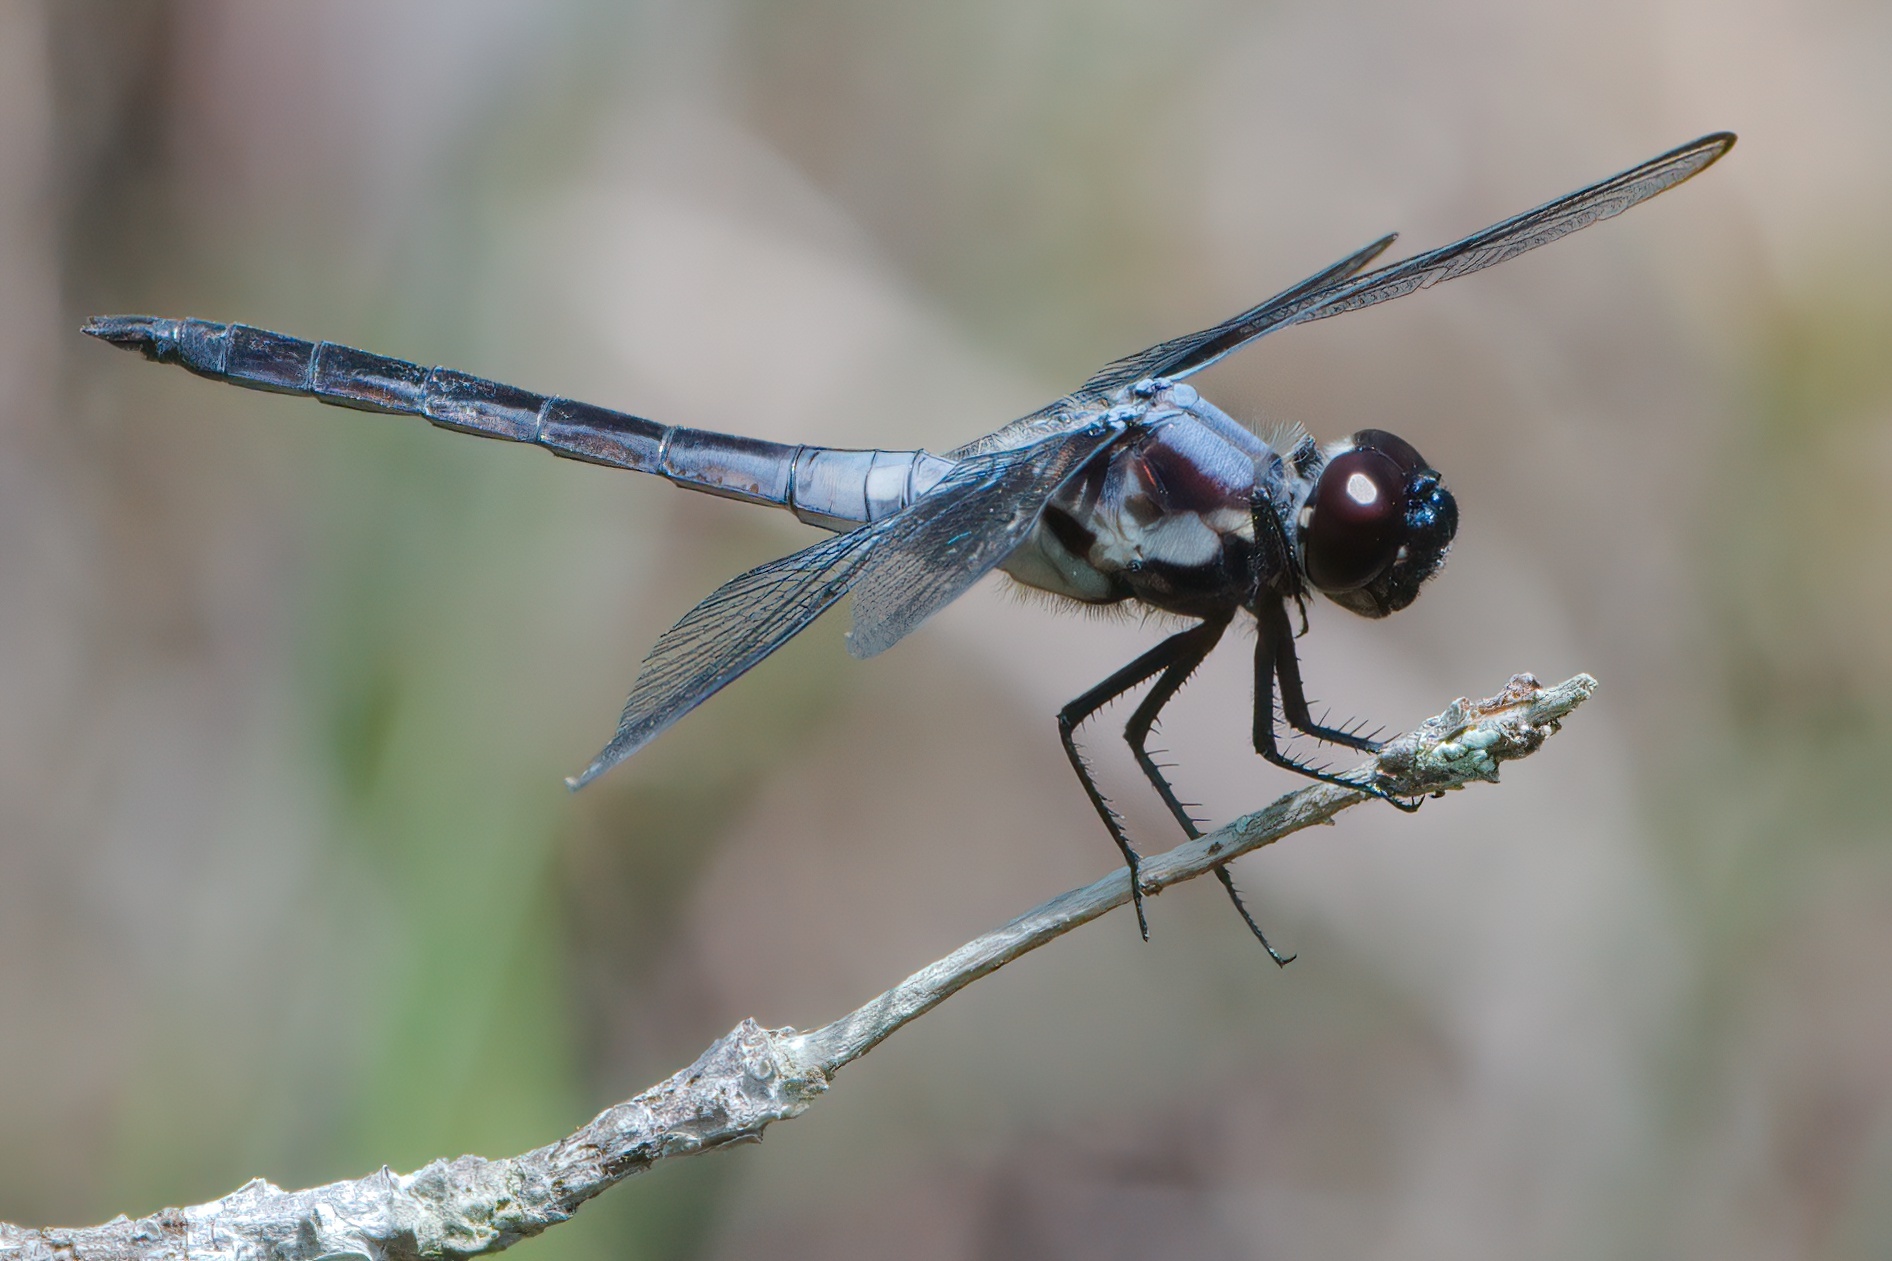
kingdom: Animalia
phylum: Arthropoda
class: Insecta
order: Odonata
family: Libellulidae
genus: Libellula
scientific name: Libellula axilena
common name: Bar-winged skimmer
